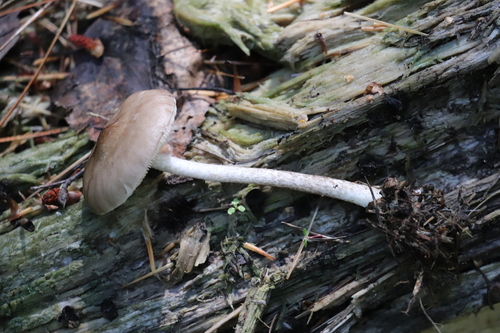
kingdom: Fungi
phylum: Basidiomycota
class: Agaricomycetes
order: Agaricales
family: Pluteaceae
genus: Pluteus
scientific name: Pluteus
